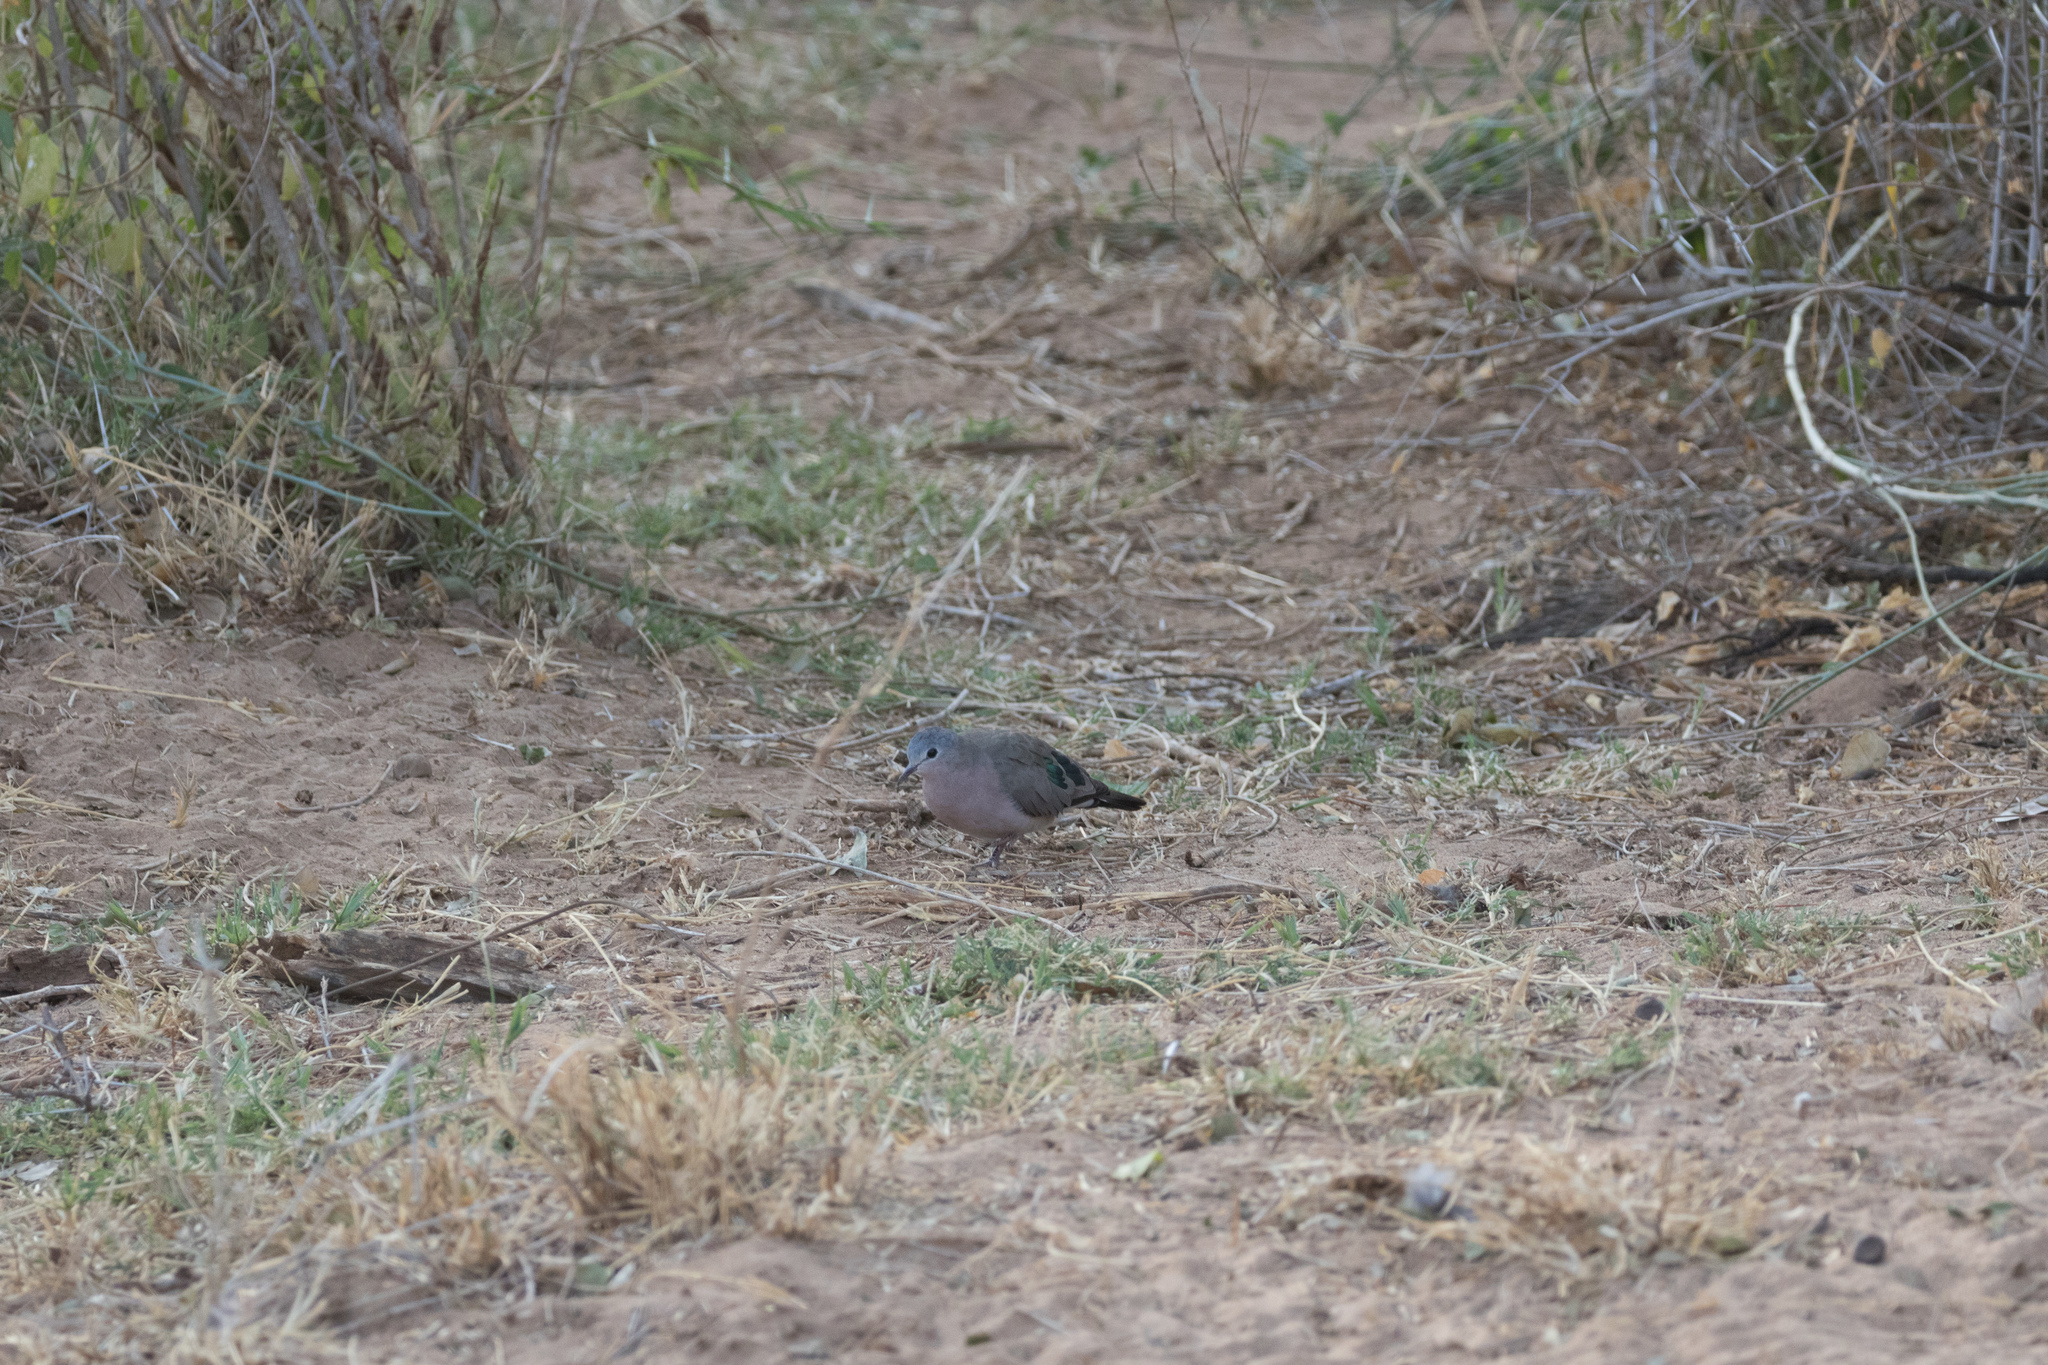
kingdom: Animalia
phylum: Chordata
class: Aves
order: Columbiformes
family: Columbidae
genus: Turtur
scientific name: Turtur chalcospilos
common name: Emerald-spotted wood dove
